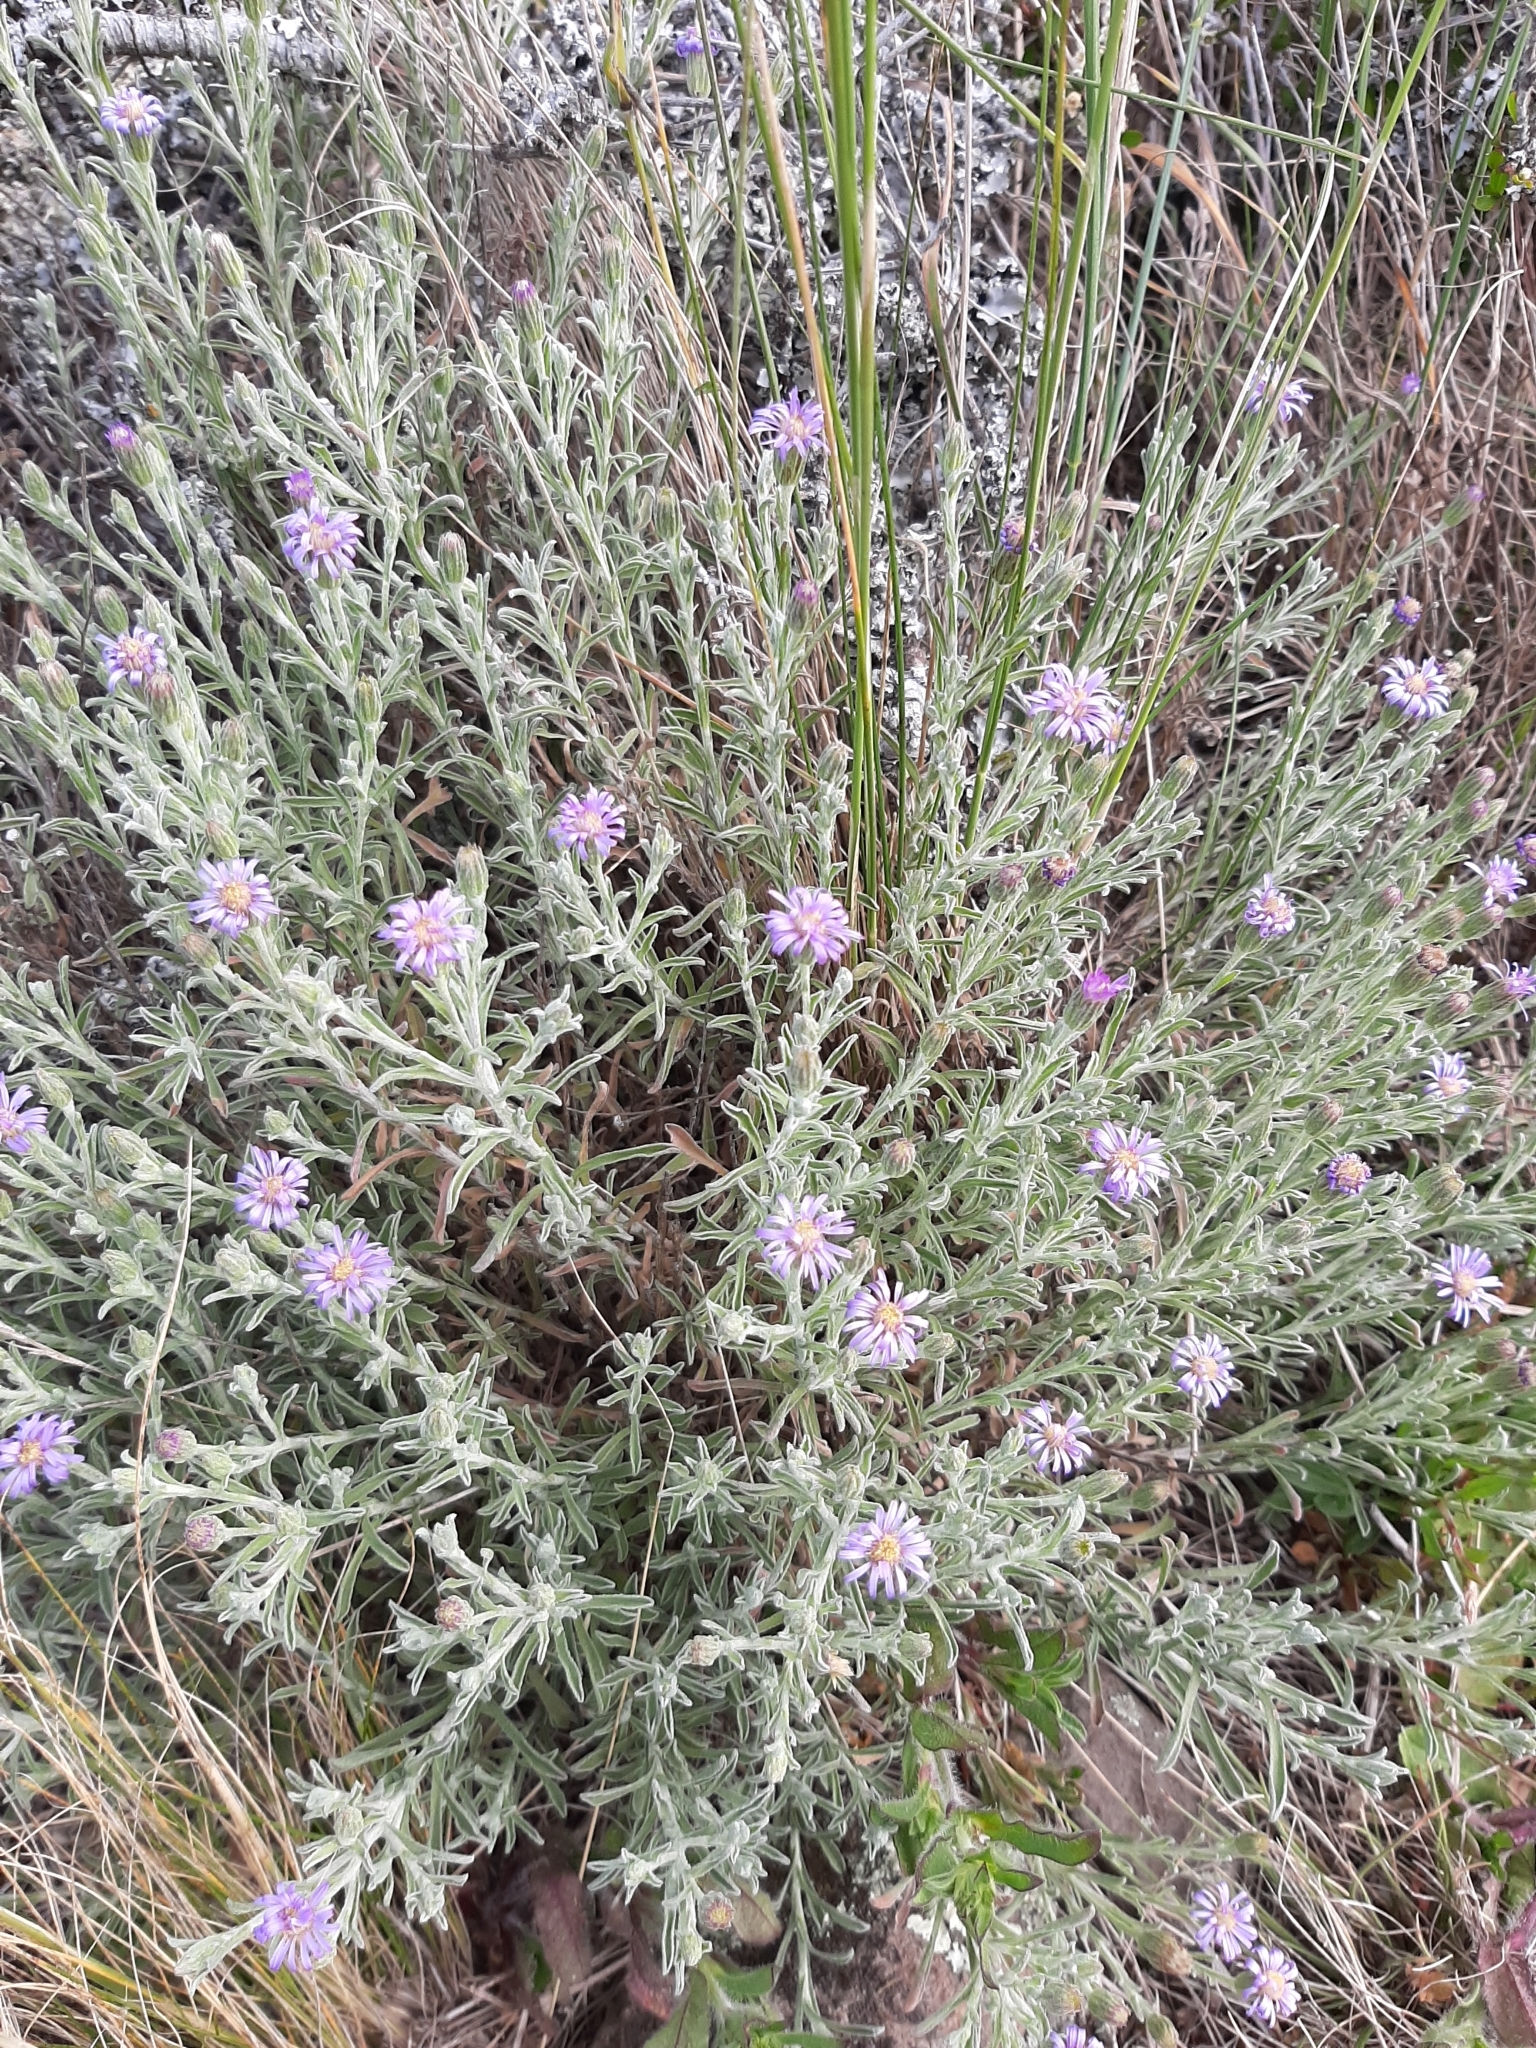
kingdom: Plantae
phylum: Tracheophyta
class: Magnoliopsida
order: Asterales
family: Asteraceae
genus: Vittadinia
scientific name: Vittadinia gracilis
